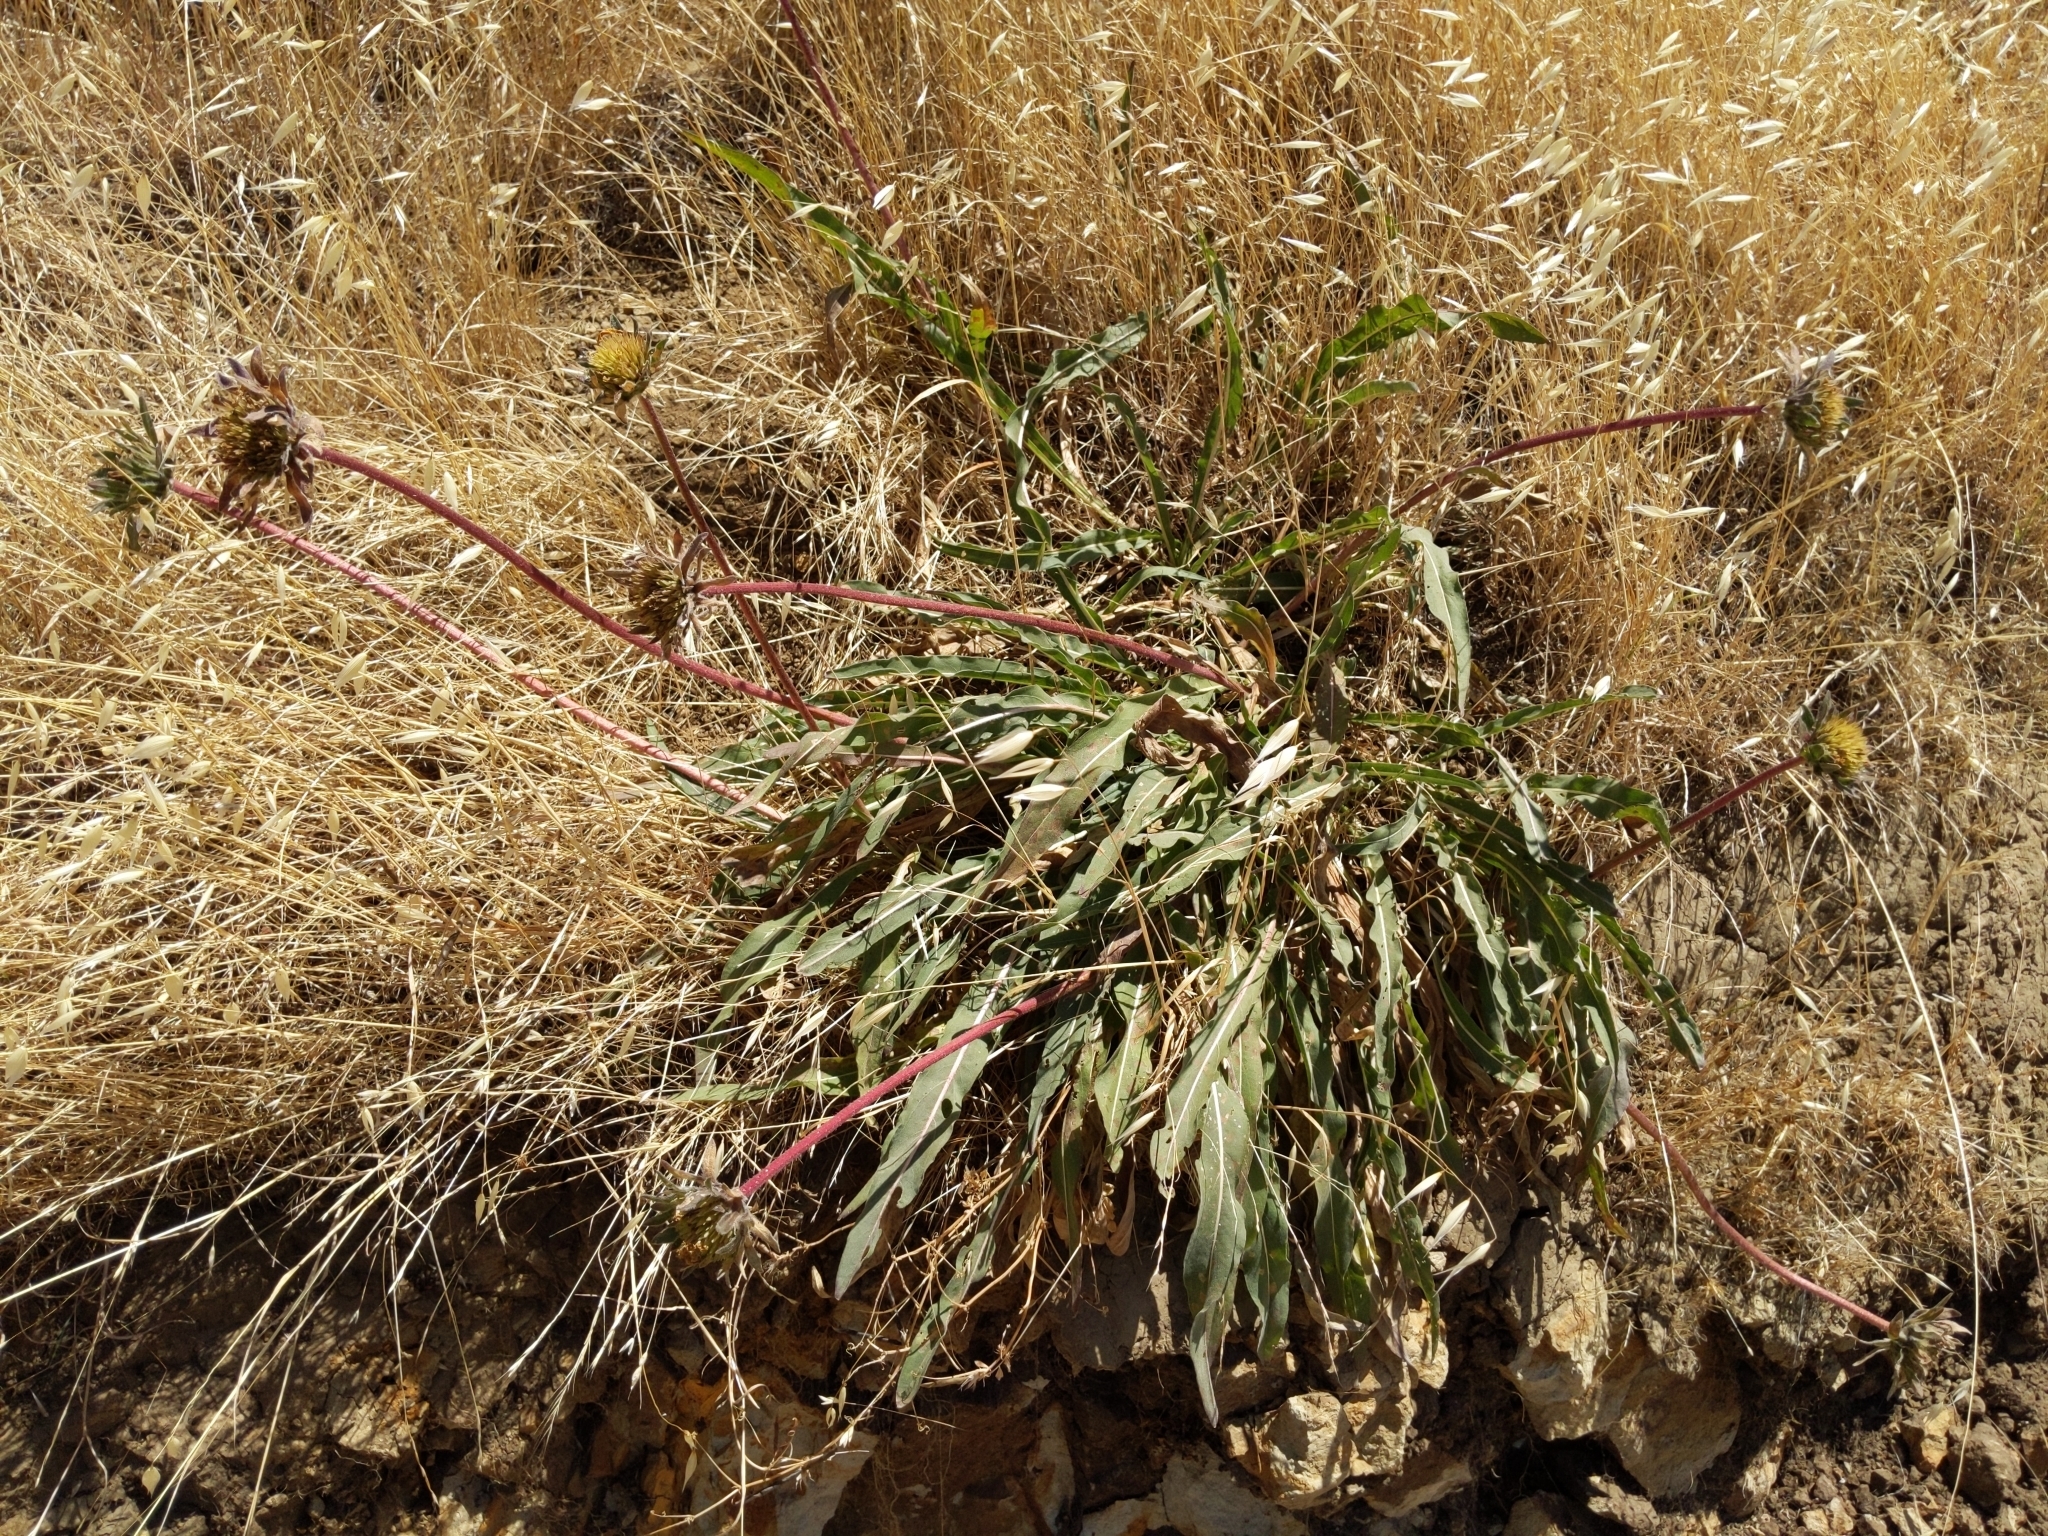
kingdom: Plantae
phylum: Tracheophyta
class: Magnoliopsida
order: Asterales
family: Asteraceae
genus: Wyethia
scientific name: Wyethia angustifolia
